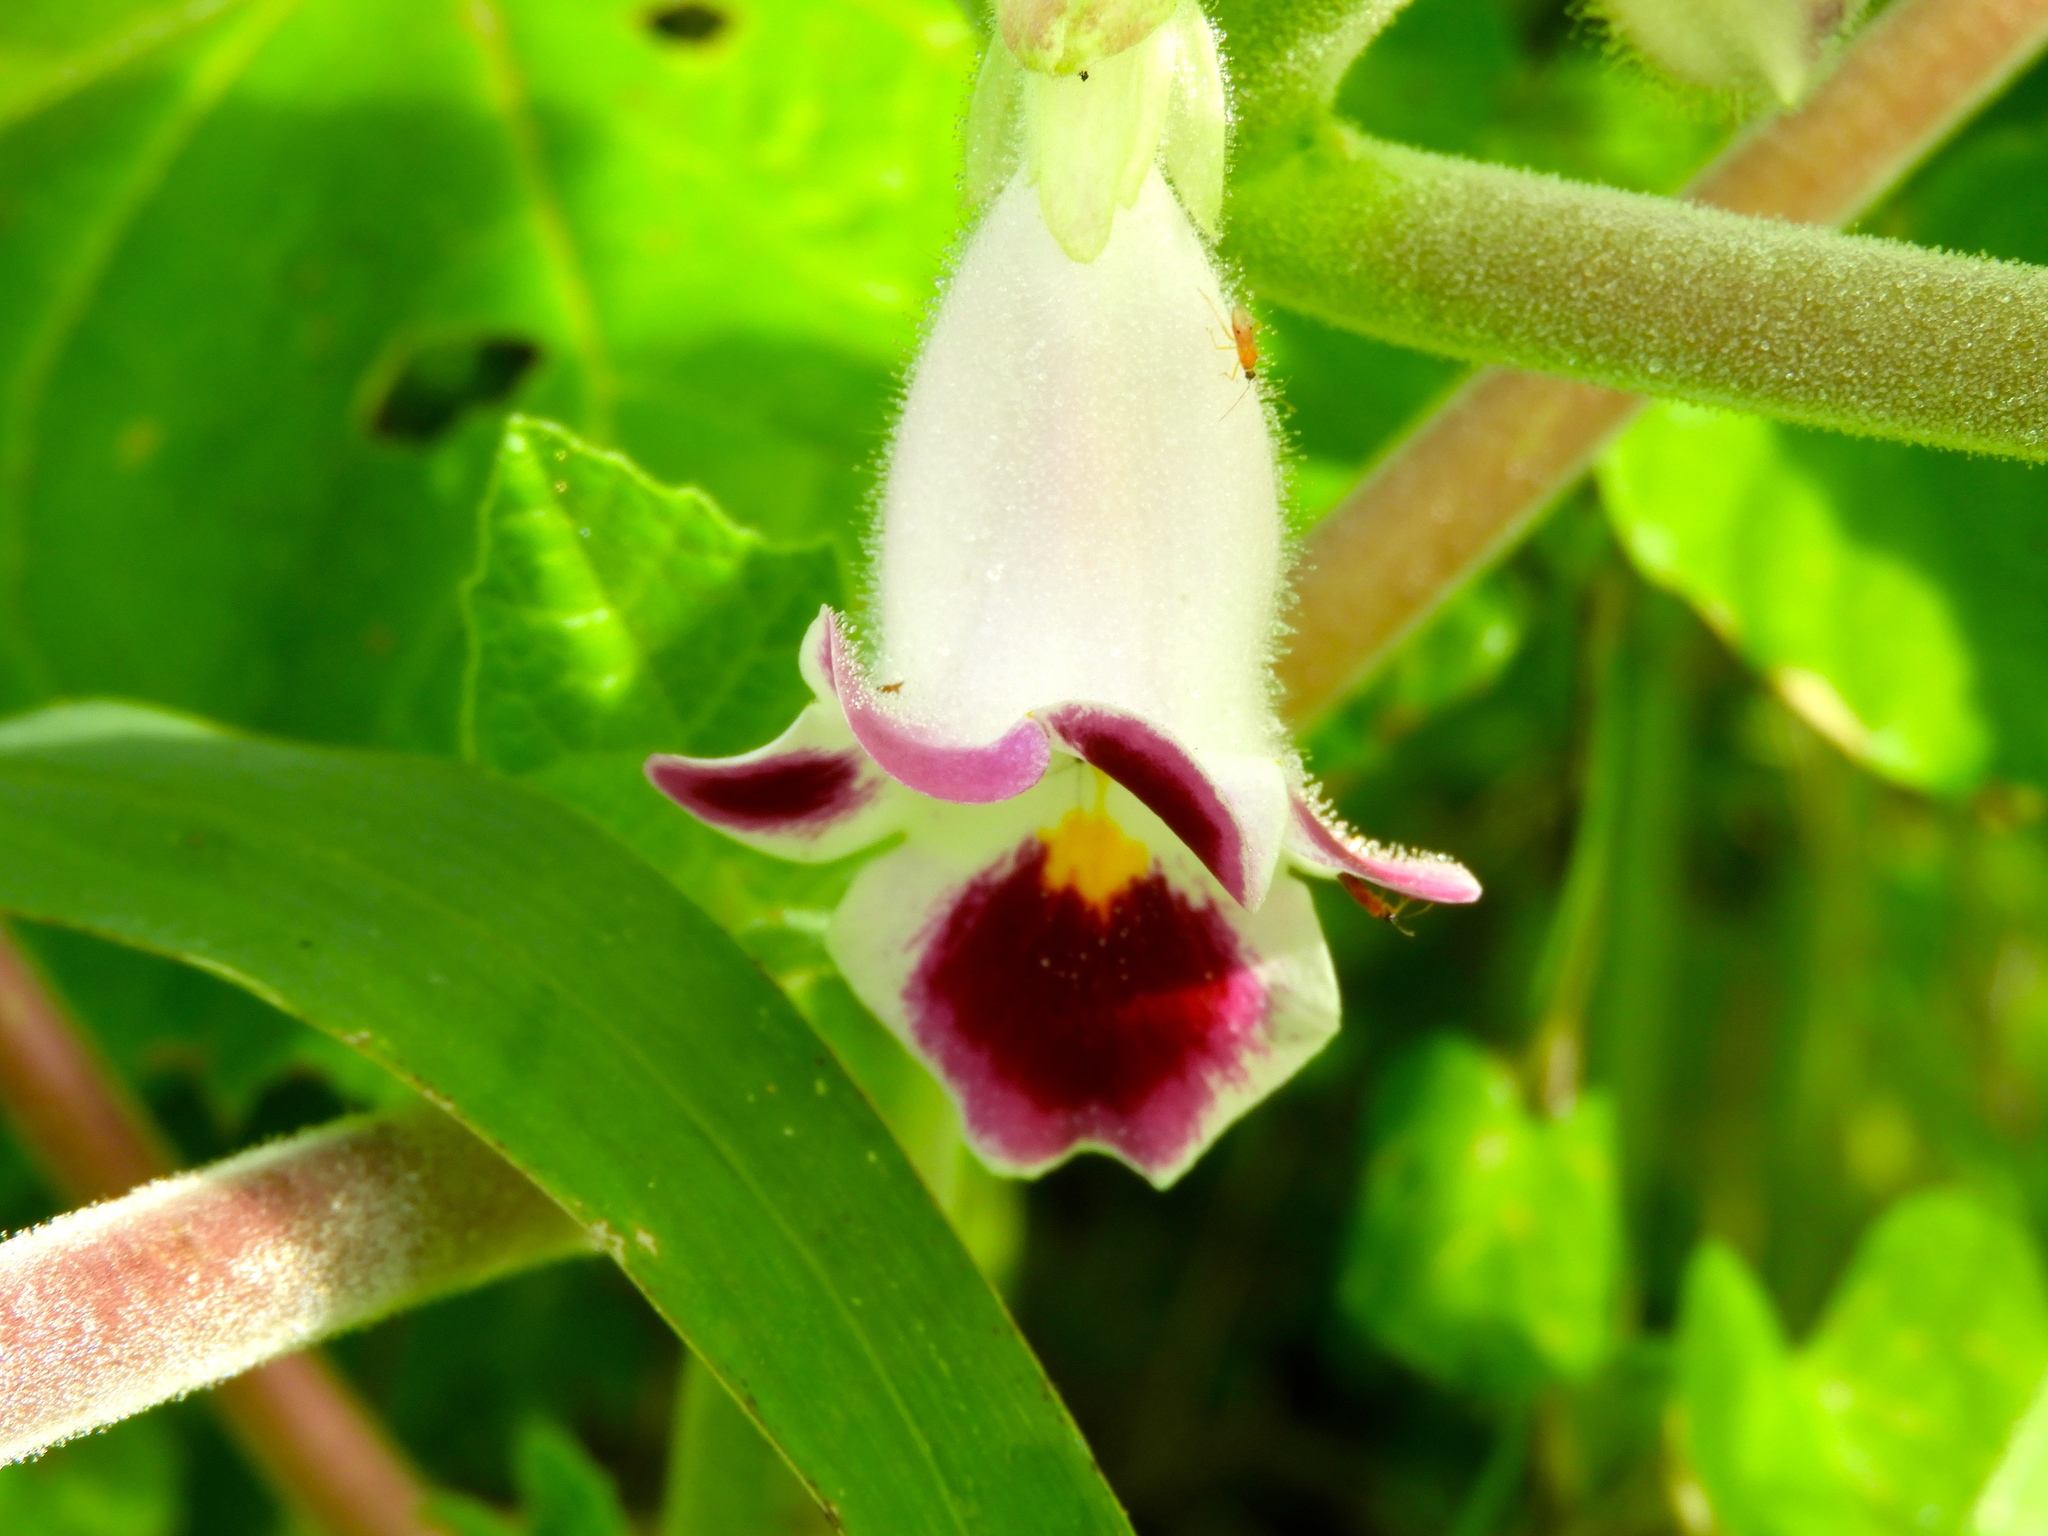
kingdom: Plantae
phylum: Tracheophyta
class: Magnoliopsida
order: Lamiales
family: Martyniaceae
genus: Martynia
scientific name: Martynia annua
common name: Tiger's-claw
